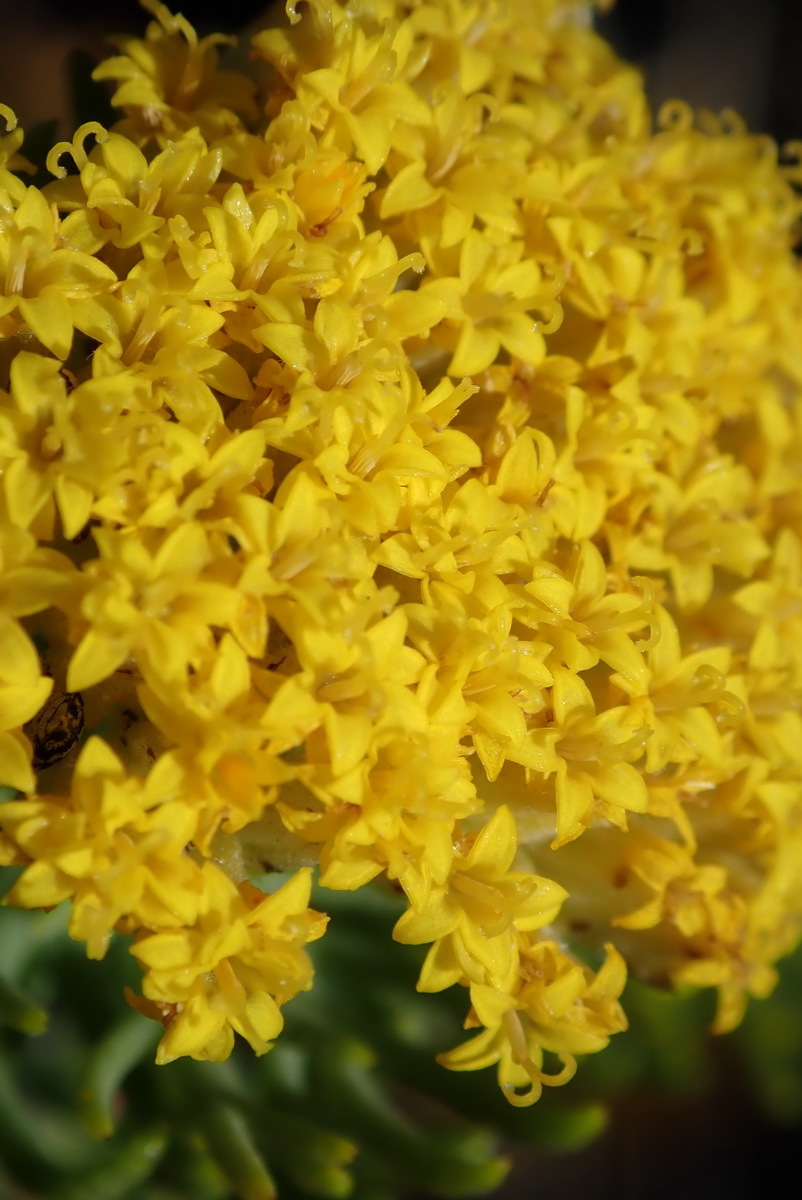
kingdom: Plantae
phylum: Tracheophyta
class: Magnoliopsida
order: Asterales
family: Asteraceae
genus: Hymenolepis
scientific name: Hymenolepis incisa
